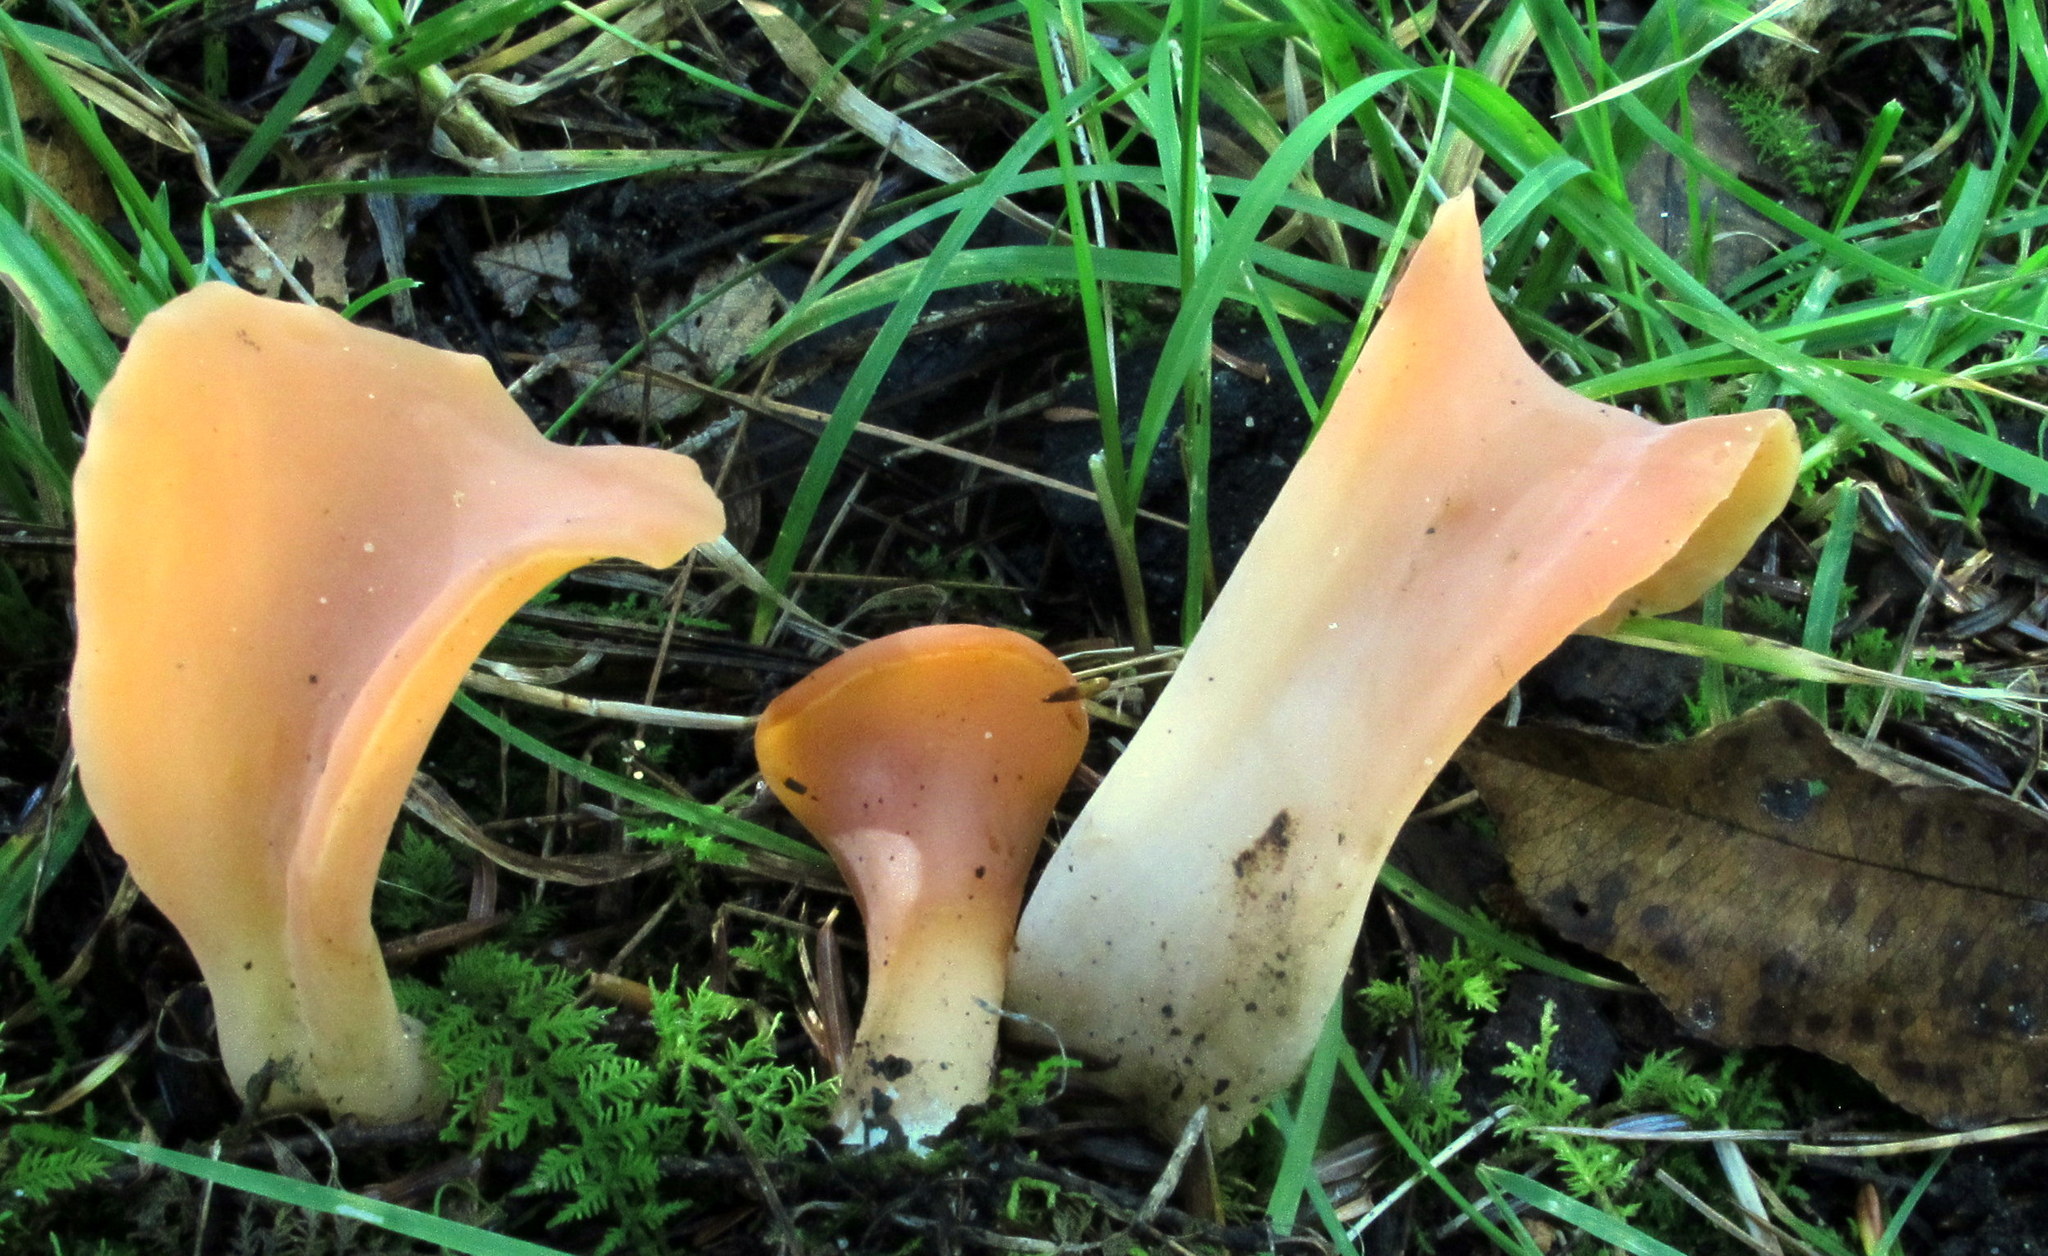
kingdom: Fungi
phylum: Basidiomycota
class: Agaricomycetes
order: Auriculariales
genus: Guepinia
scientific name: Guepinia helvelloides
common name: Salmon salad
